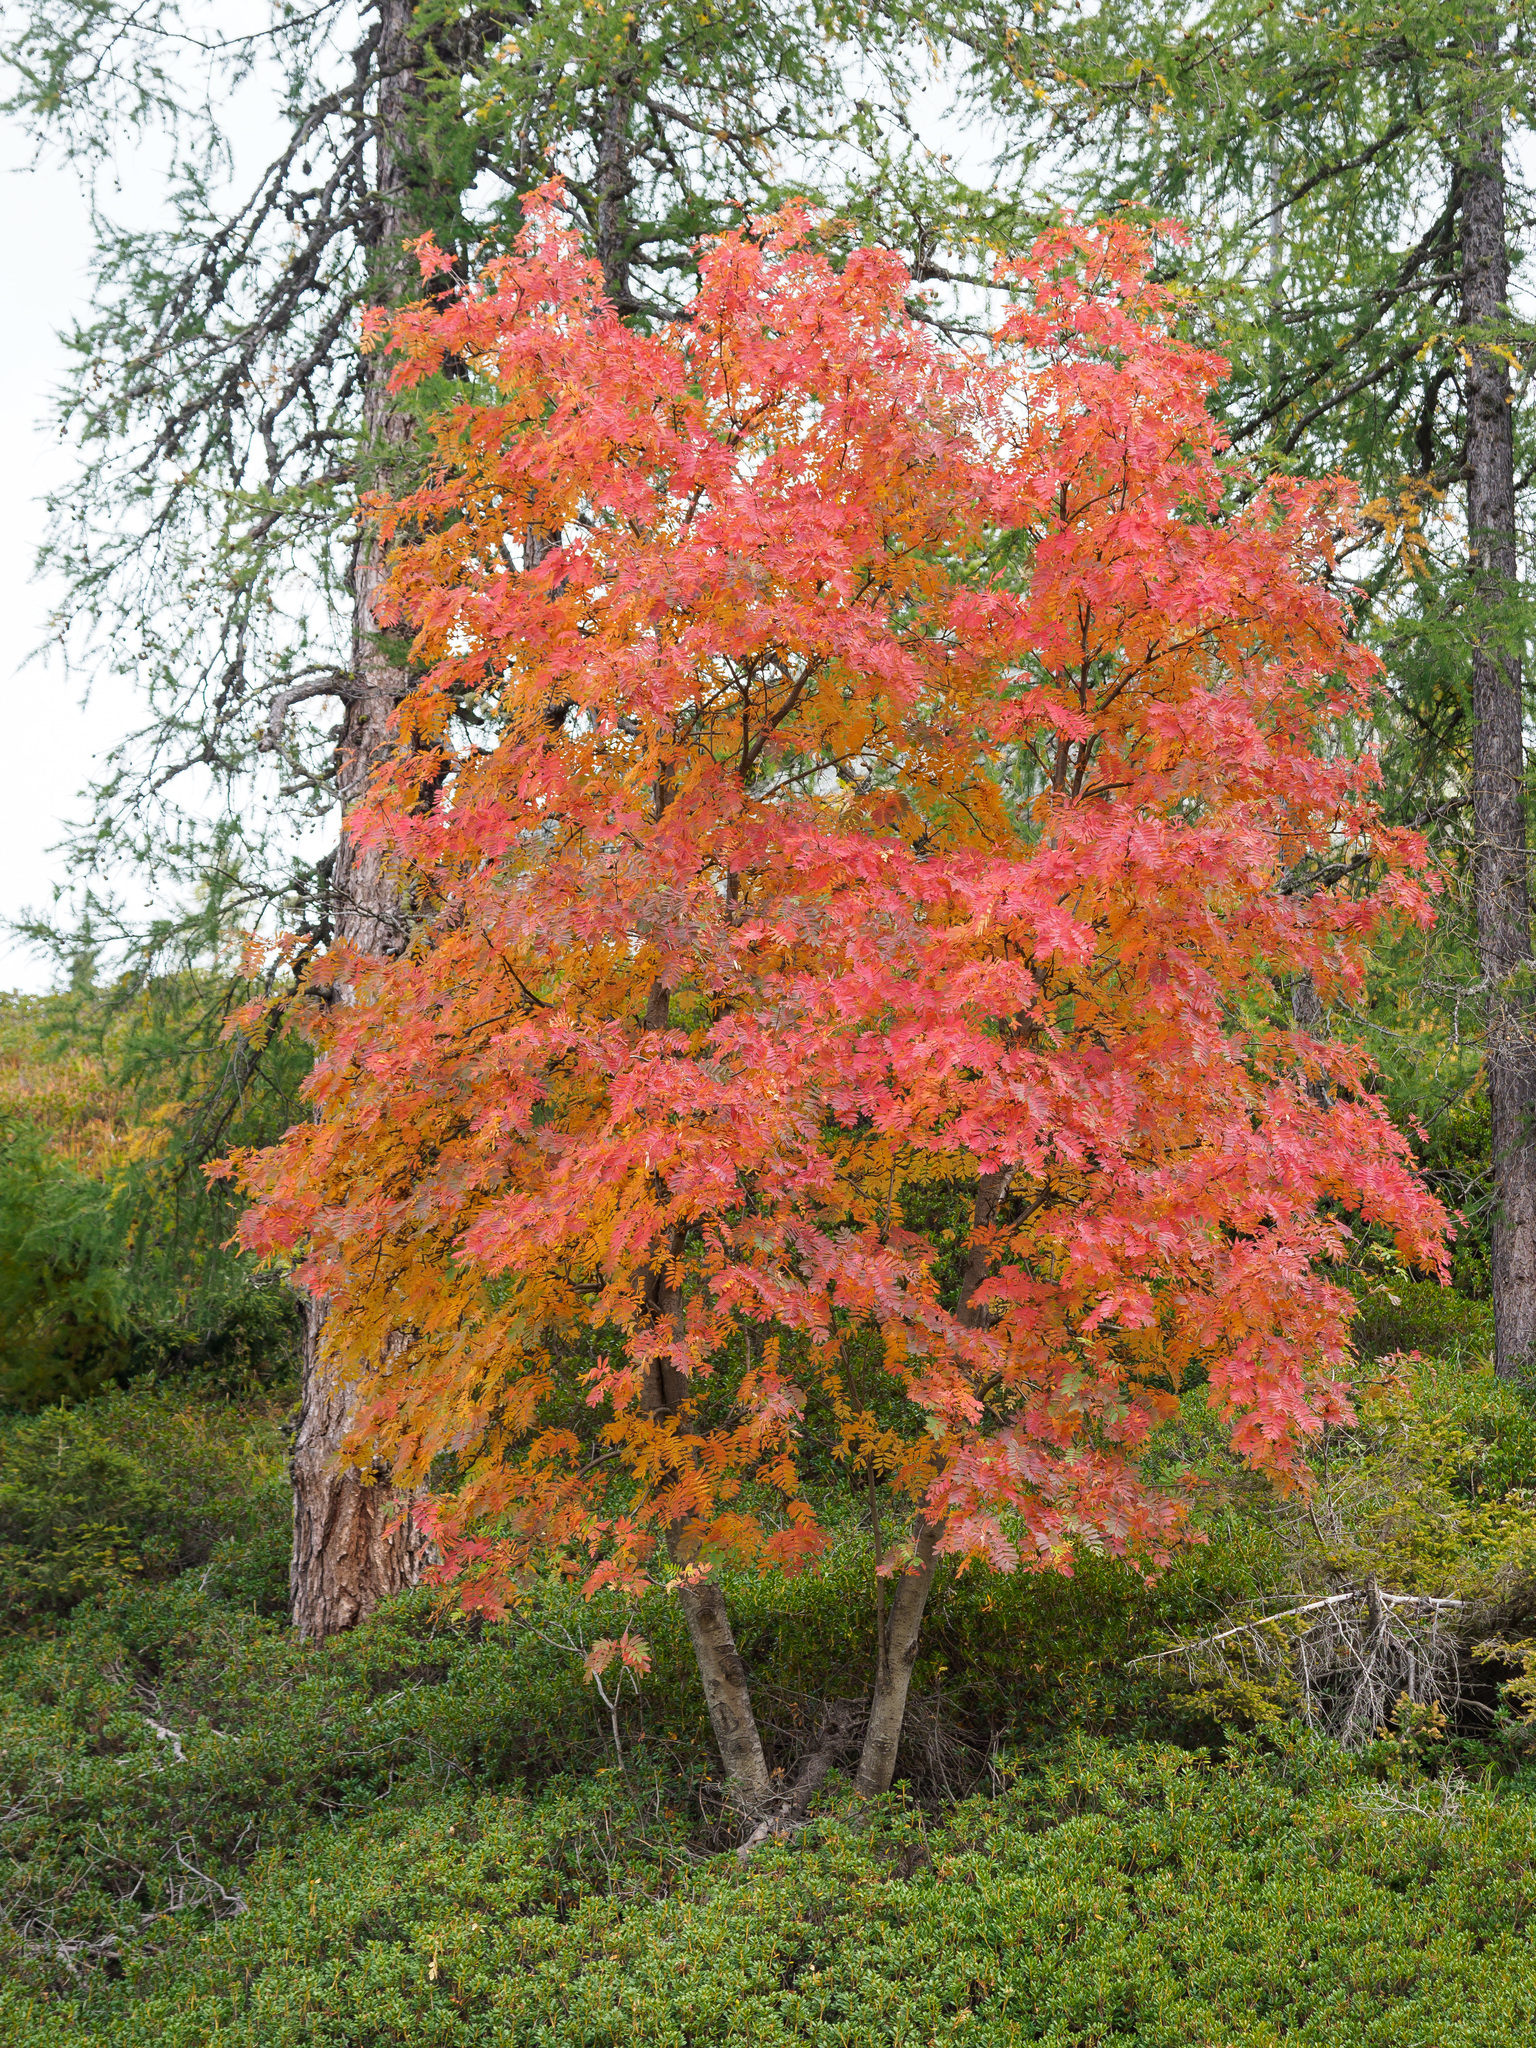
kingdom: Plantae
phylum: Tracheophyta
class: Magnoliopsida
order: Rosales
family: Rosaceae
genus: Sorbus
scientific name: Sorbus aucuparia
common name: Rowan
